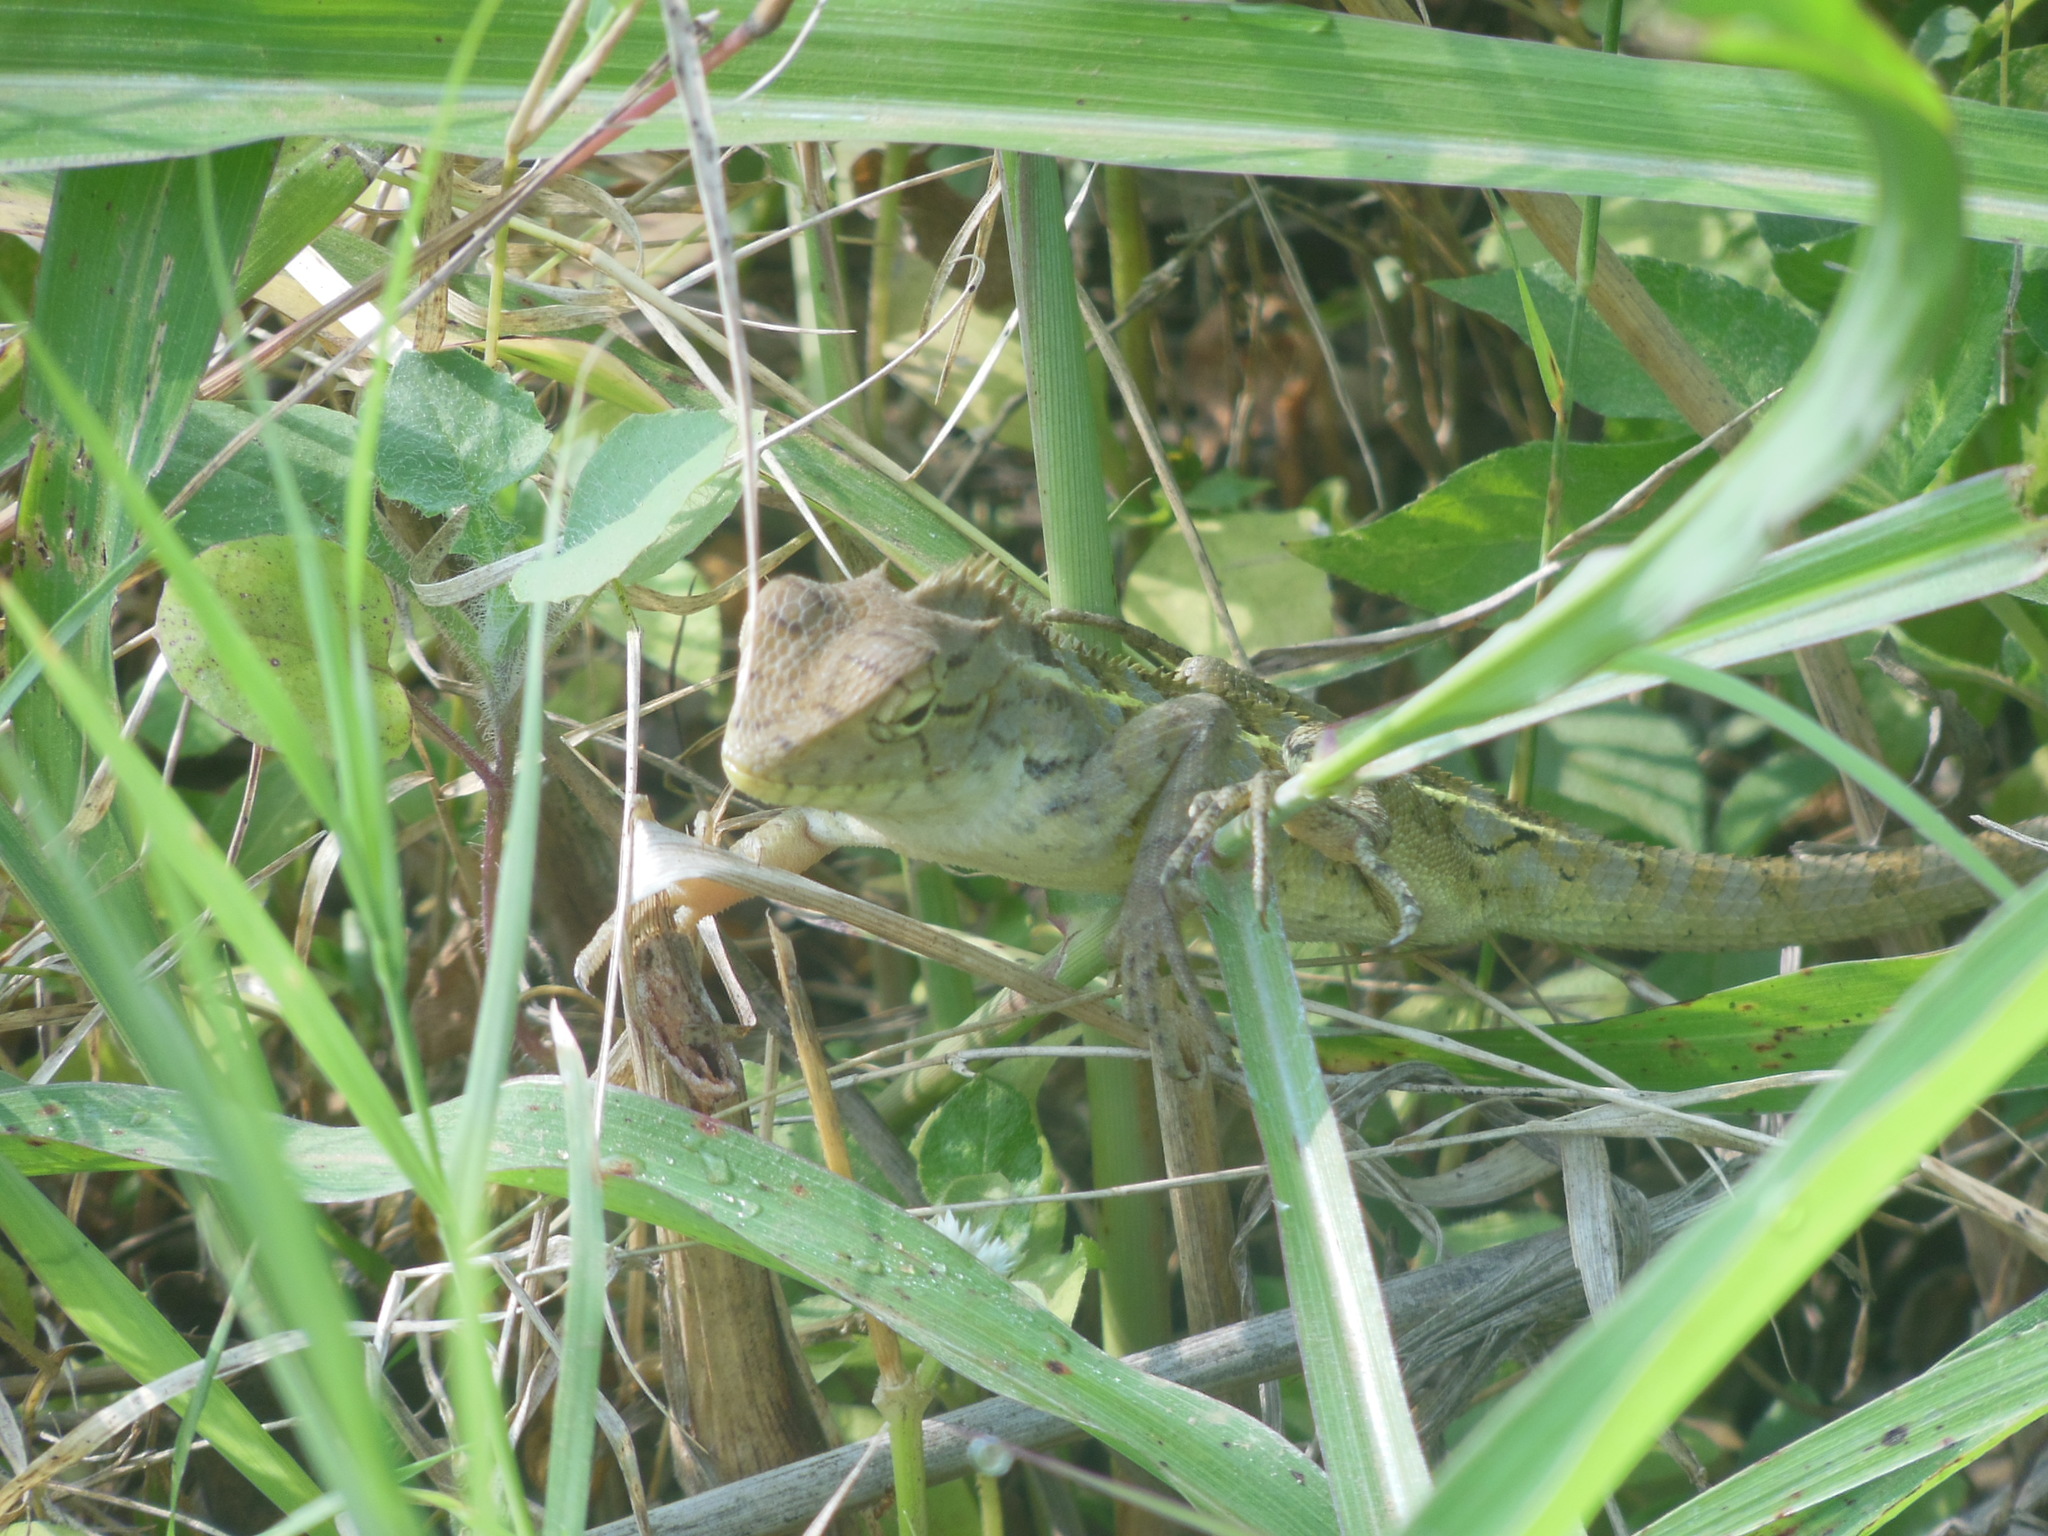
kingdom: Animalia
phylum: Chordata
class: Squamata
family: Agamidae
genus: Calotes
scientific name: Calotes versicolor
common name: Oriental garden lizard
